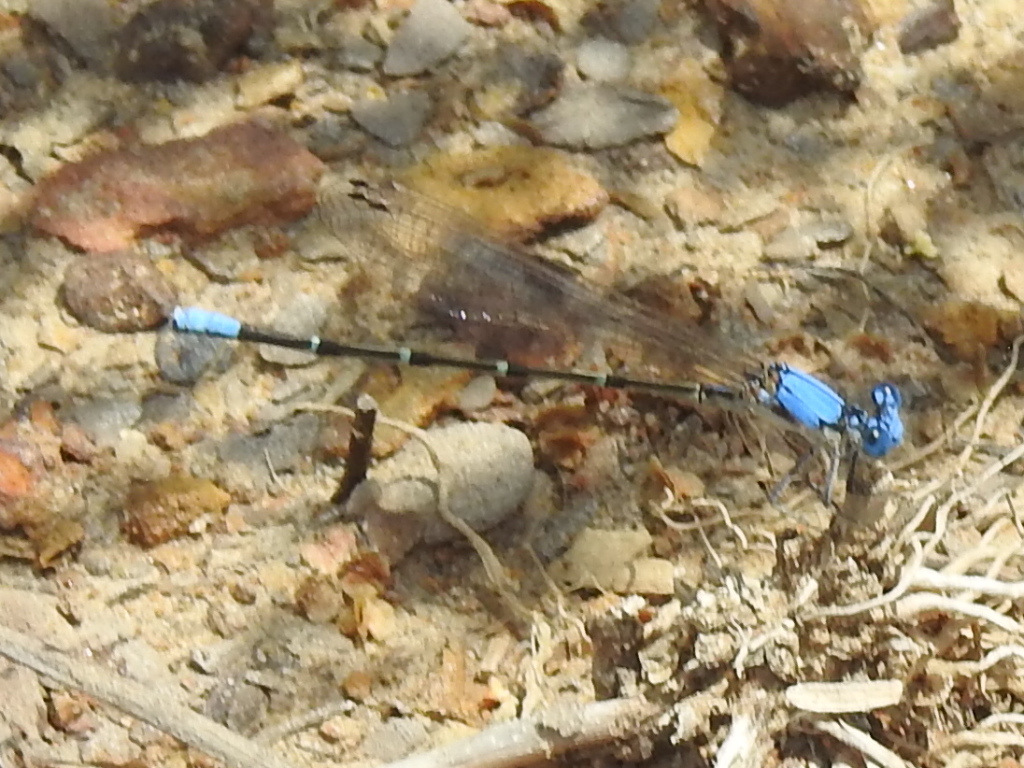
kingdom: Animalia
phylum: Arthropoda
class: Insecta
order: Odonata
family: Coenagrionidae
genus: Argia
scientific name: Argia apicalis
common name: Blue-fronted dancer
